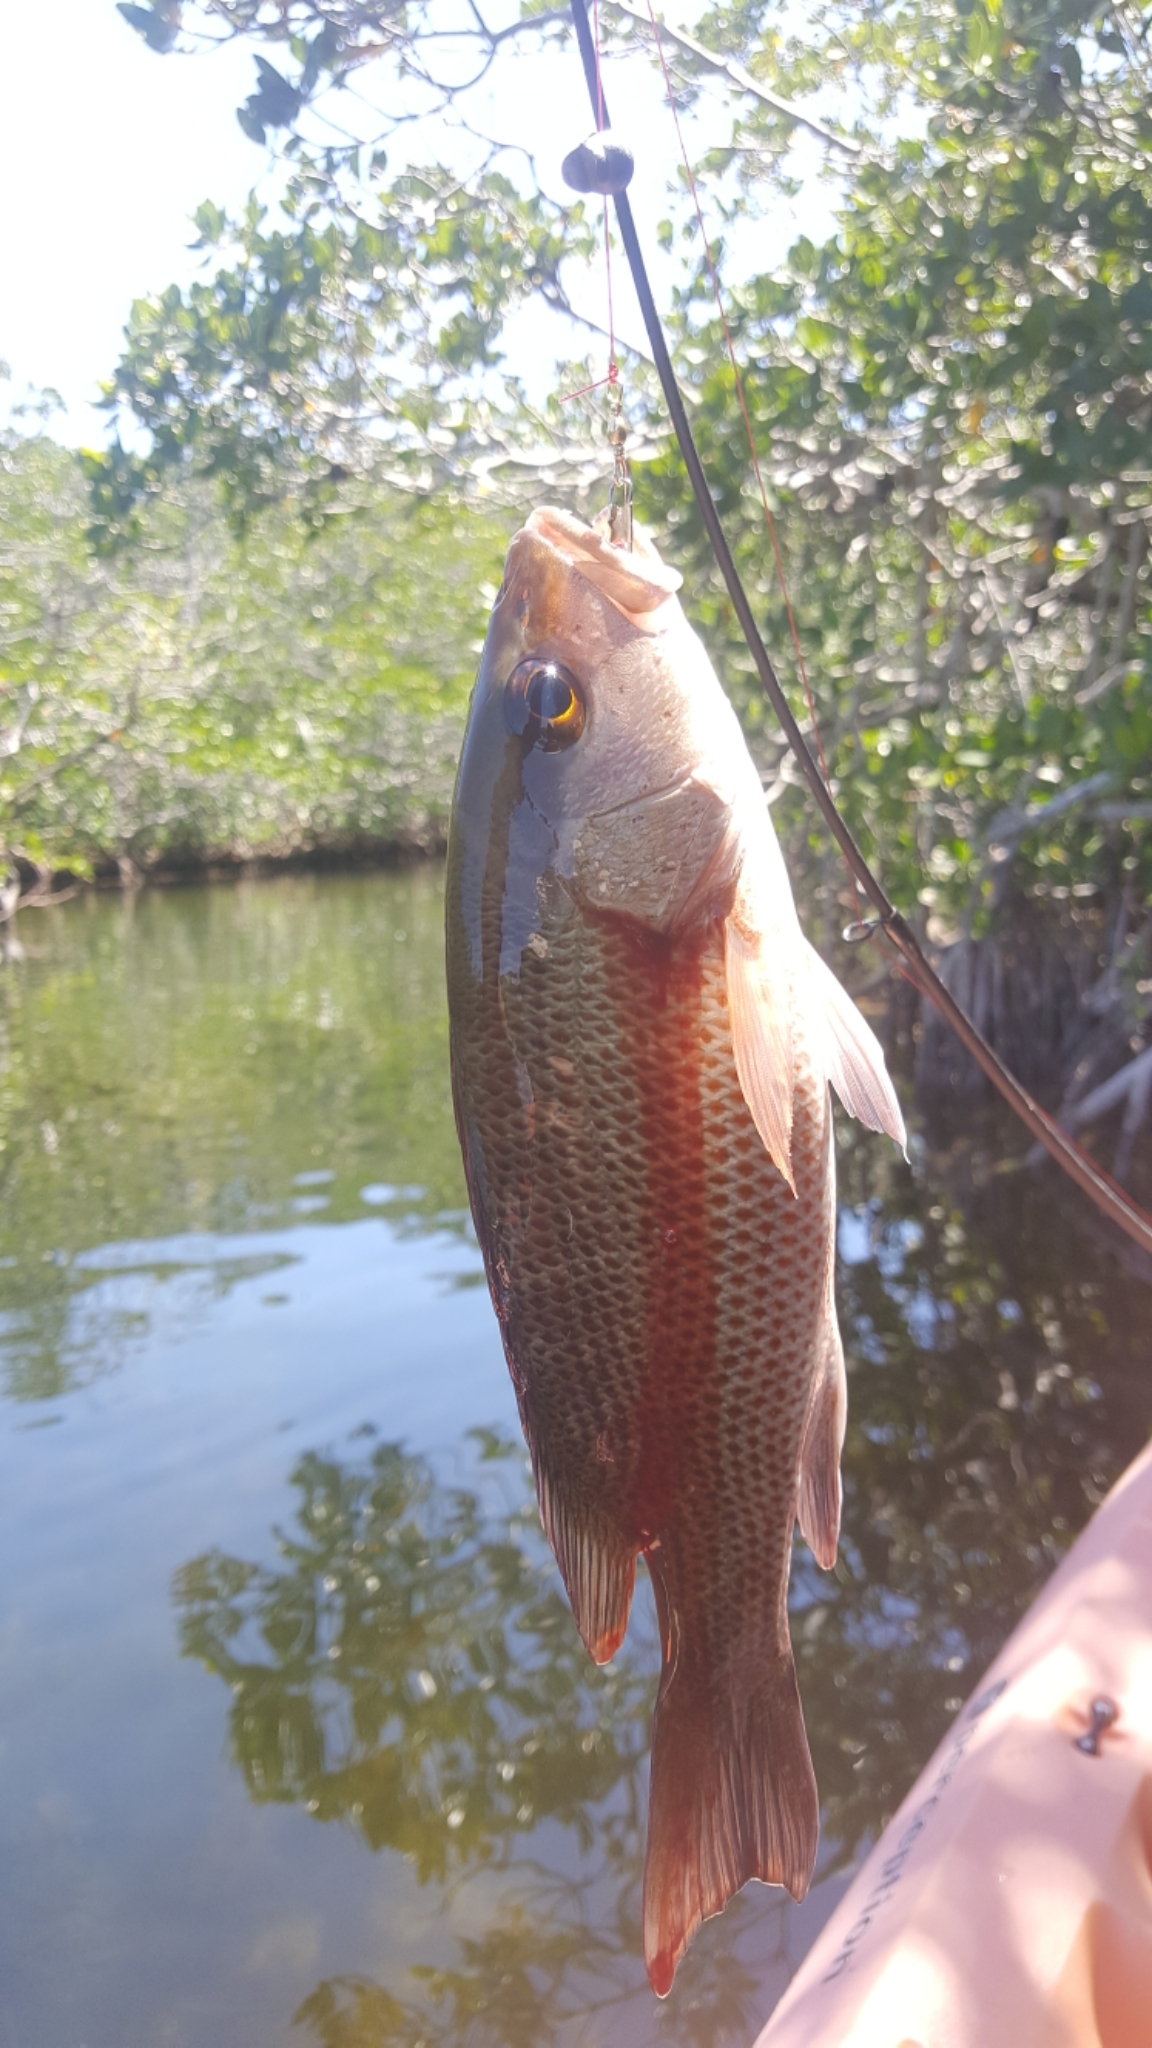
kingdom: Animalia
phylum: Chordata
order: Perciformes
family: Lutjanidae
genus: Lutjanus
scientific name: Lutjanus griseus
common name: Gray snapper
